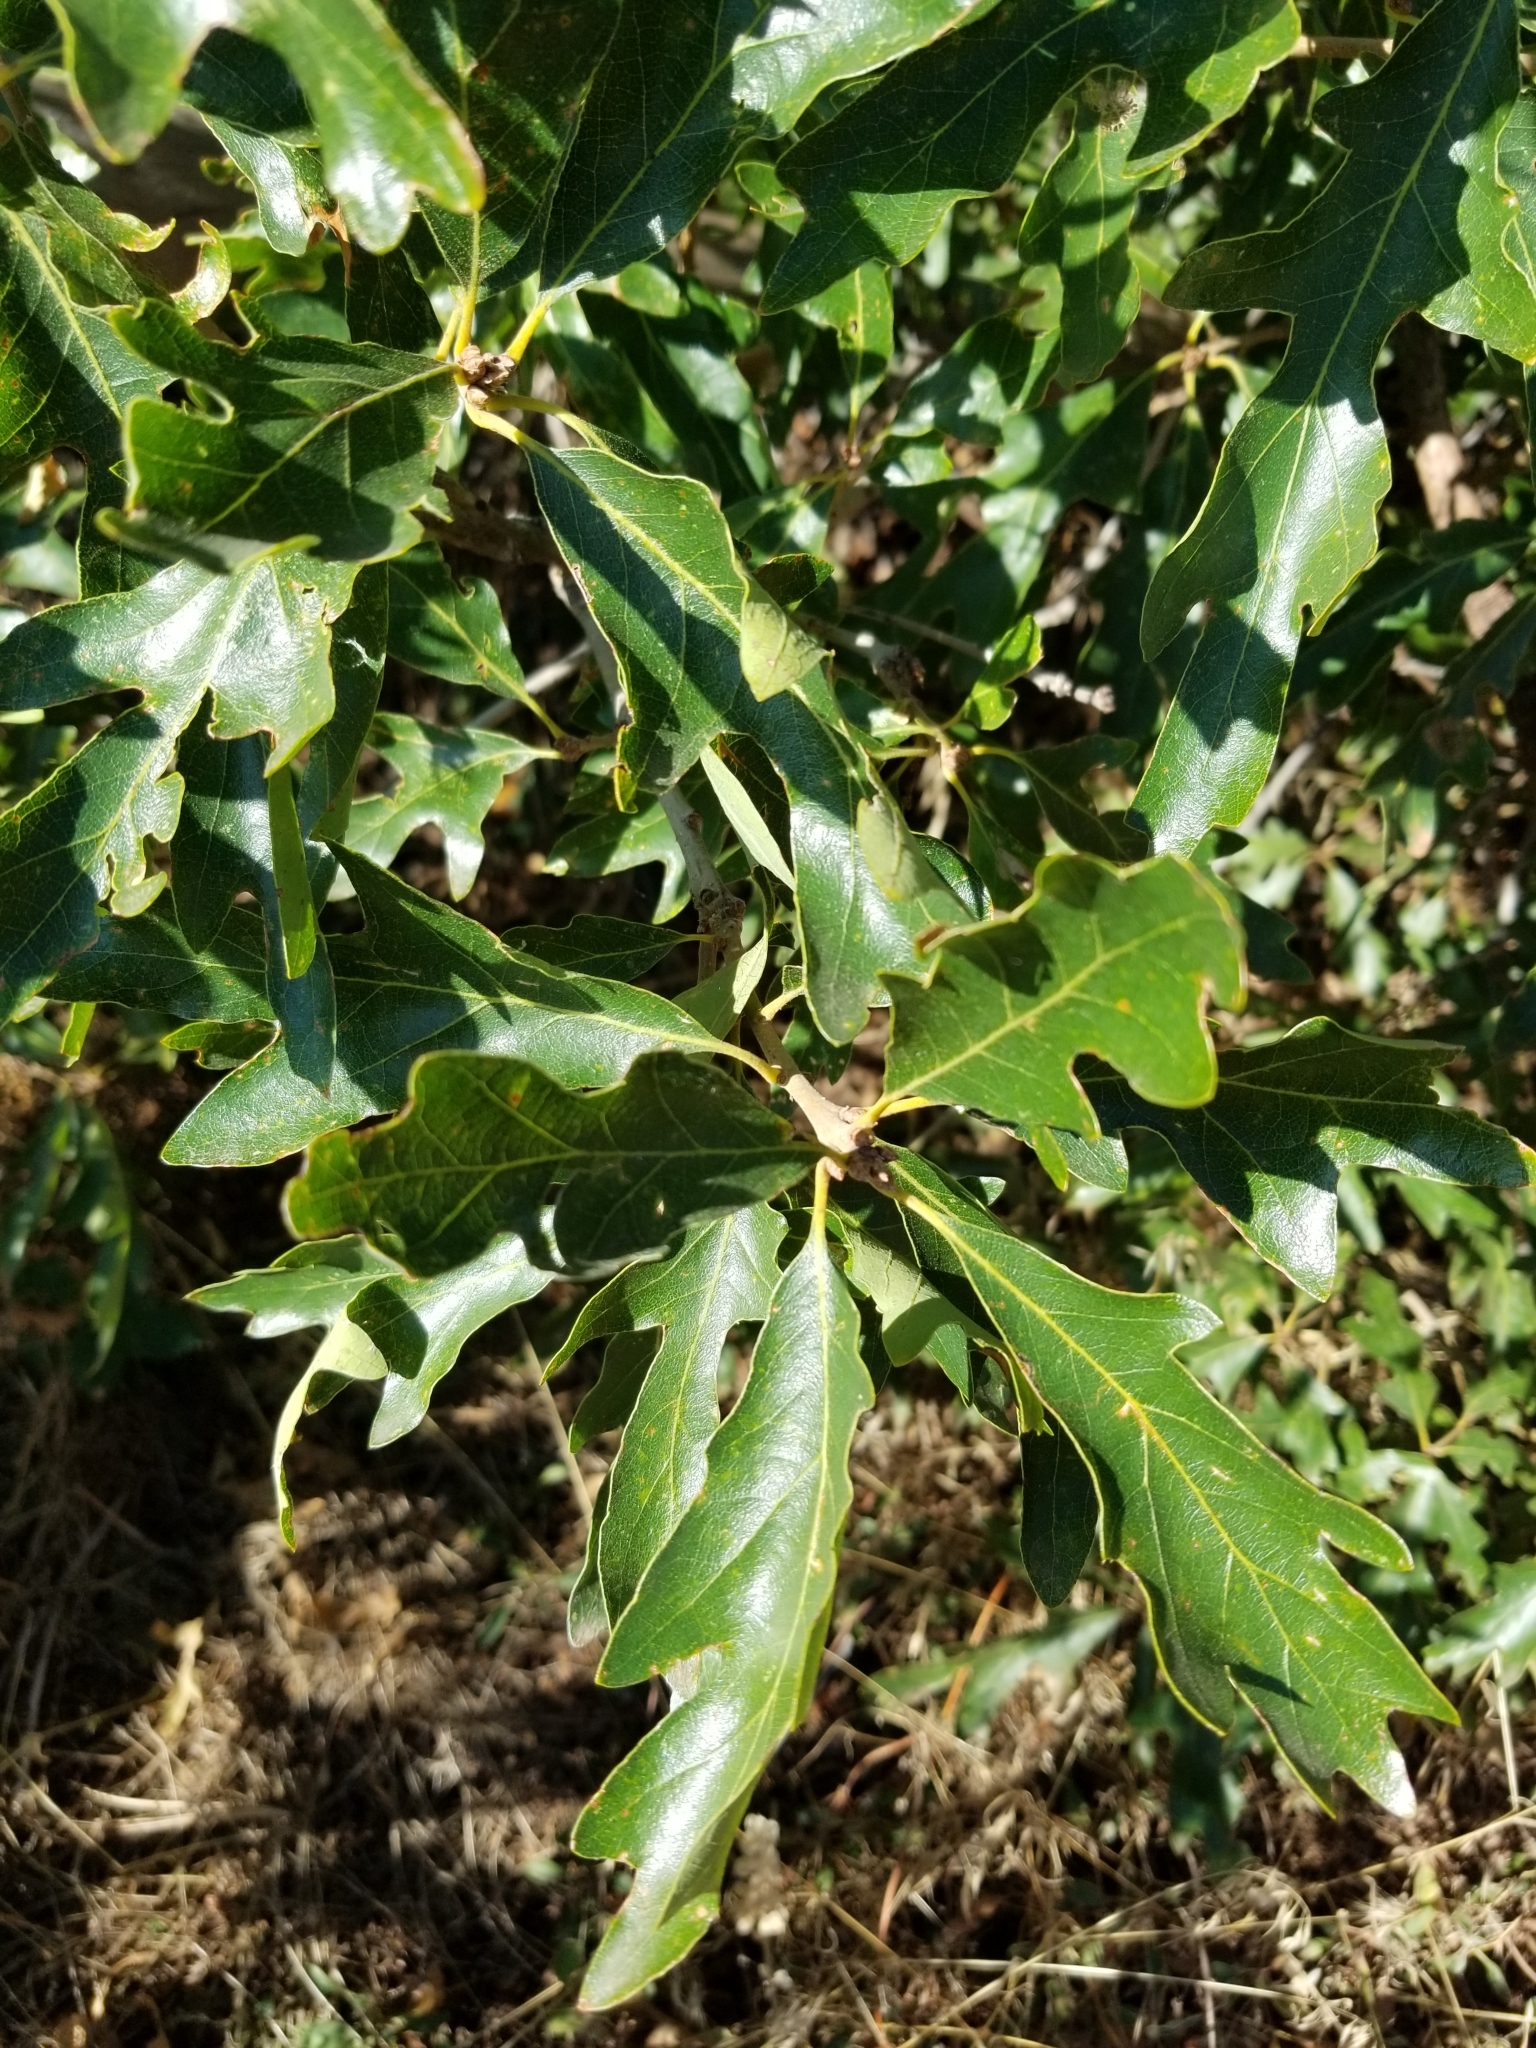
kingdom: Plantae
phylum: Tracheophyta
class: Magnoliopsida
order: Fagales
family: Fagaceae
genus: Quercus
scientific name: Quercus gambelii
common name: Gambel oak
